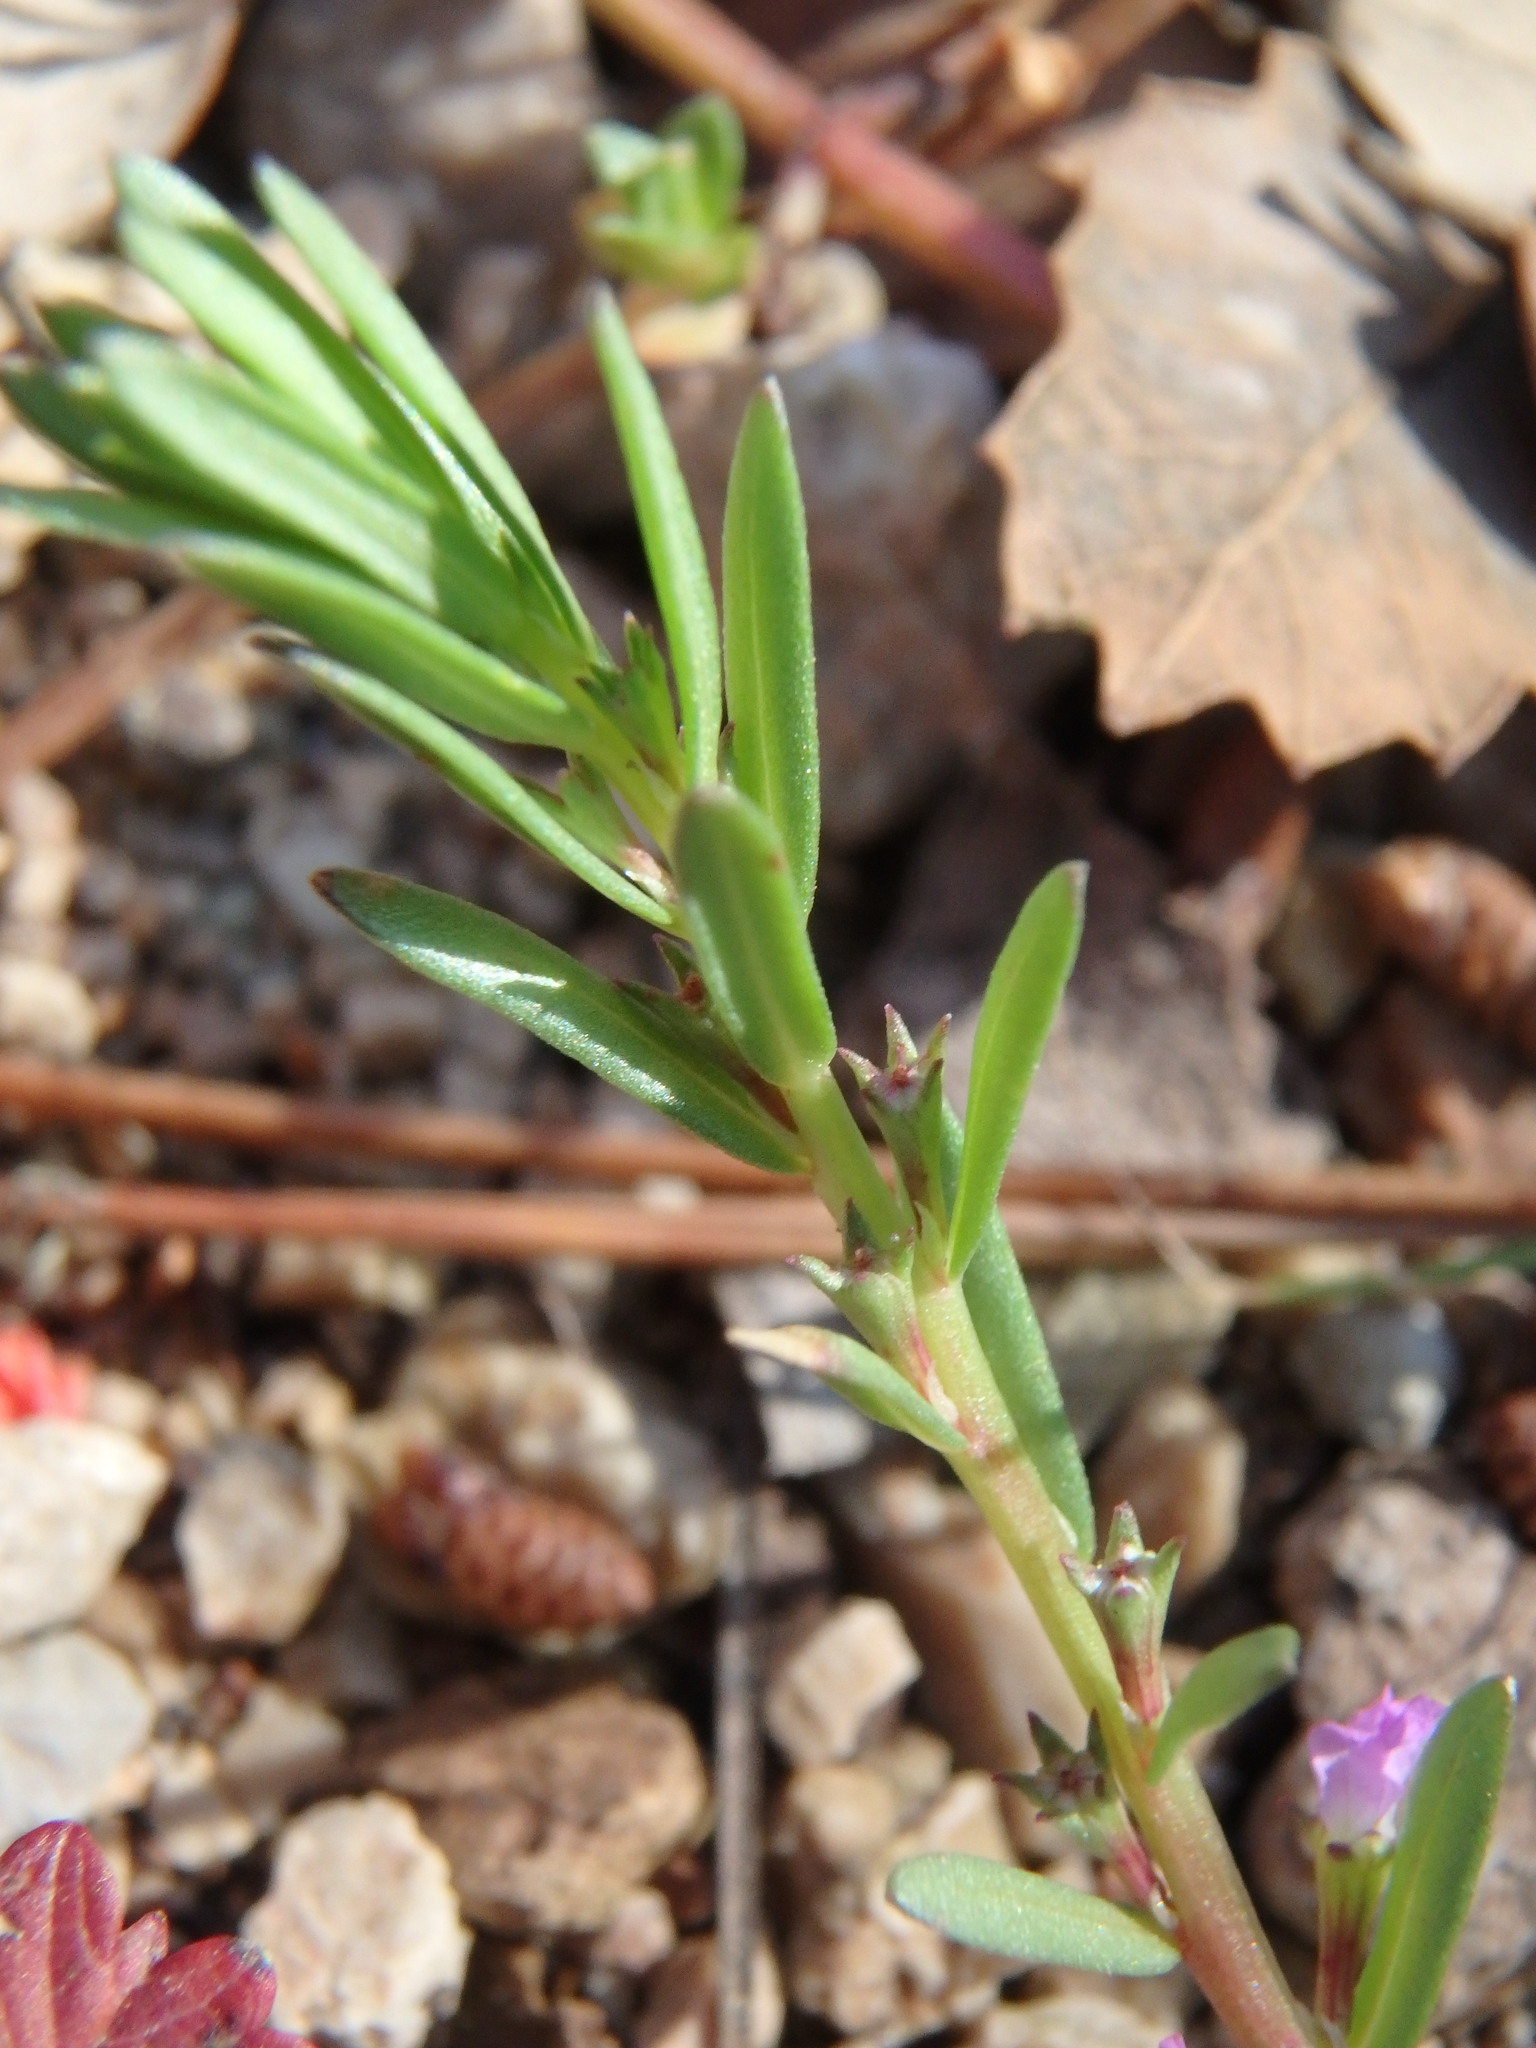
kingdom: Plantae
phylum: Tracheophyta
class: Magnoliopsida
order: Myrtales
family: Lythraceae
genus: Lythrum
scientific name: Lythrum hyssopifolia
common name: Grass-poly
